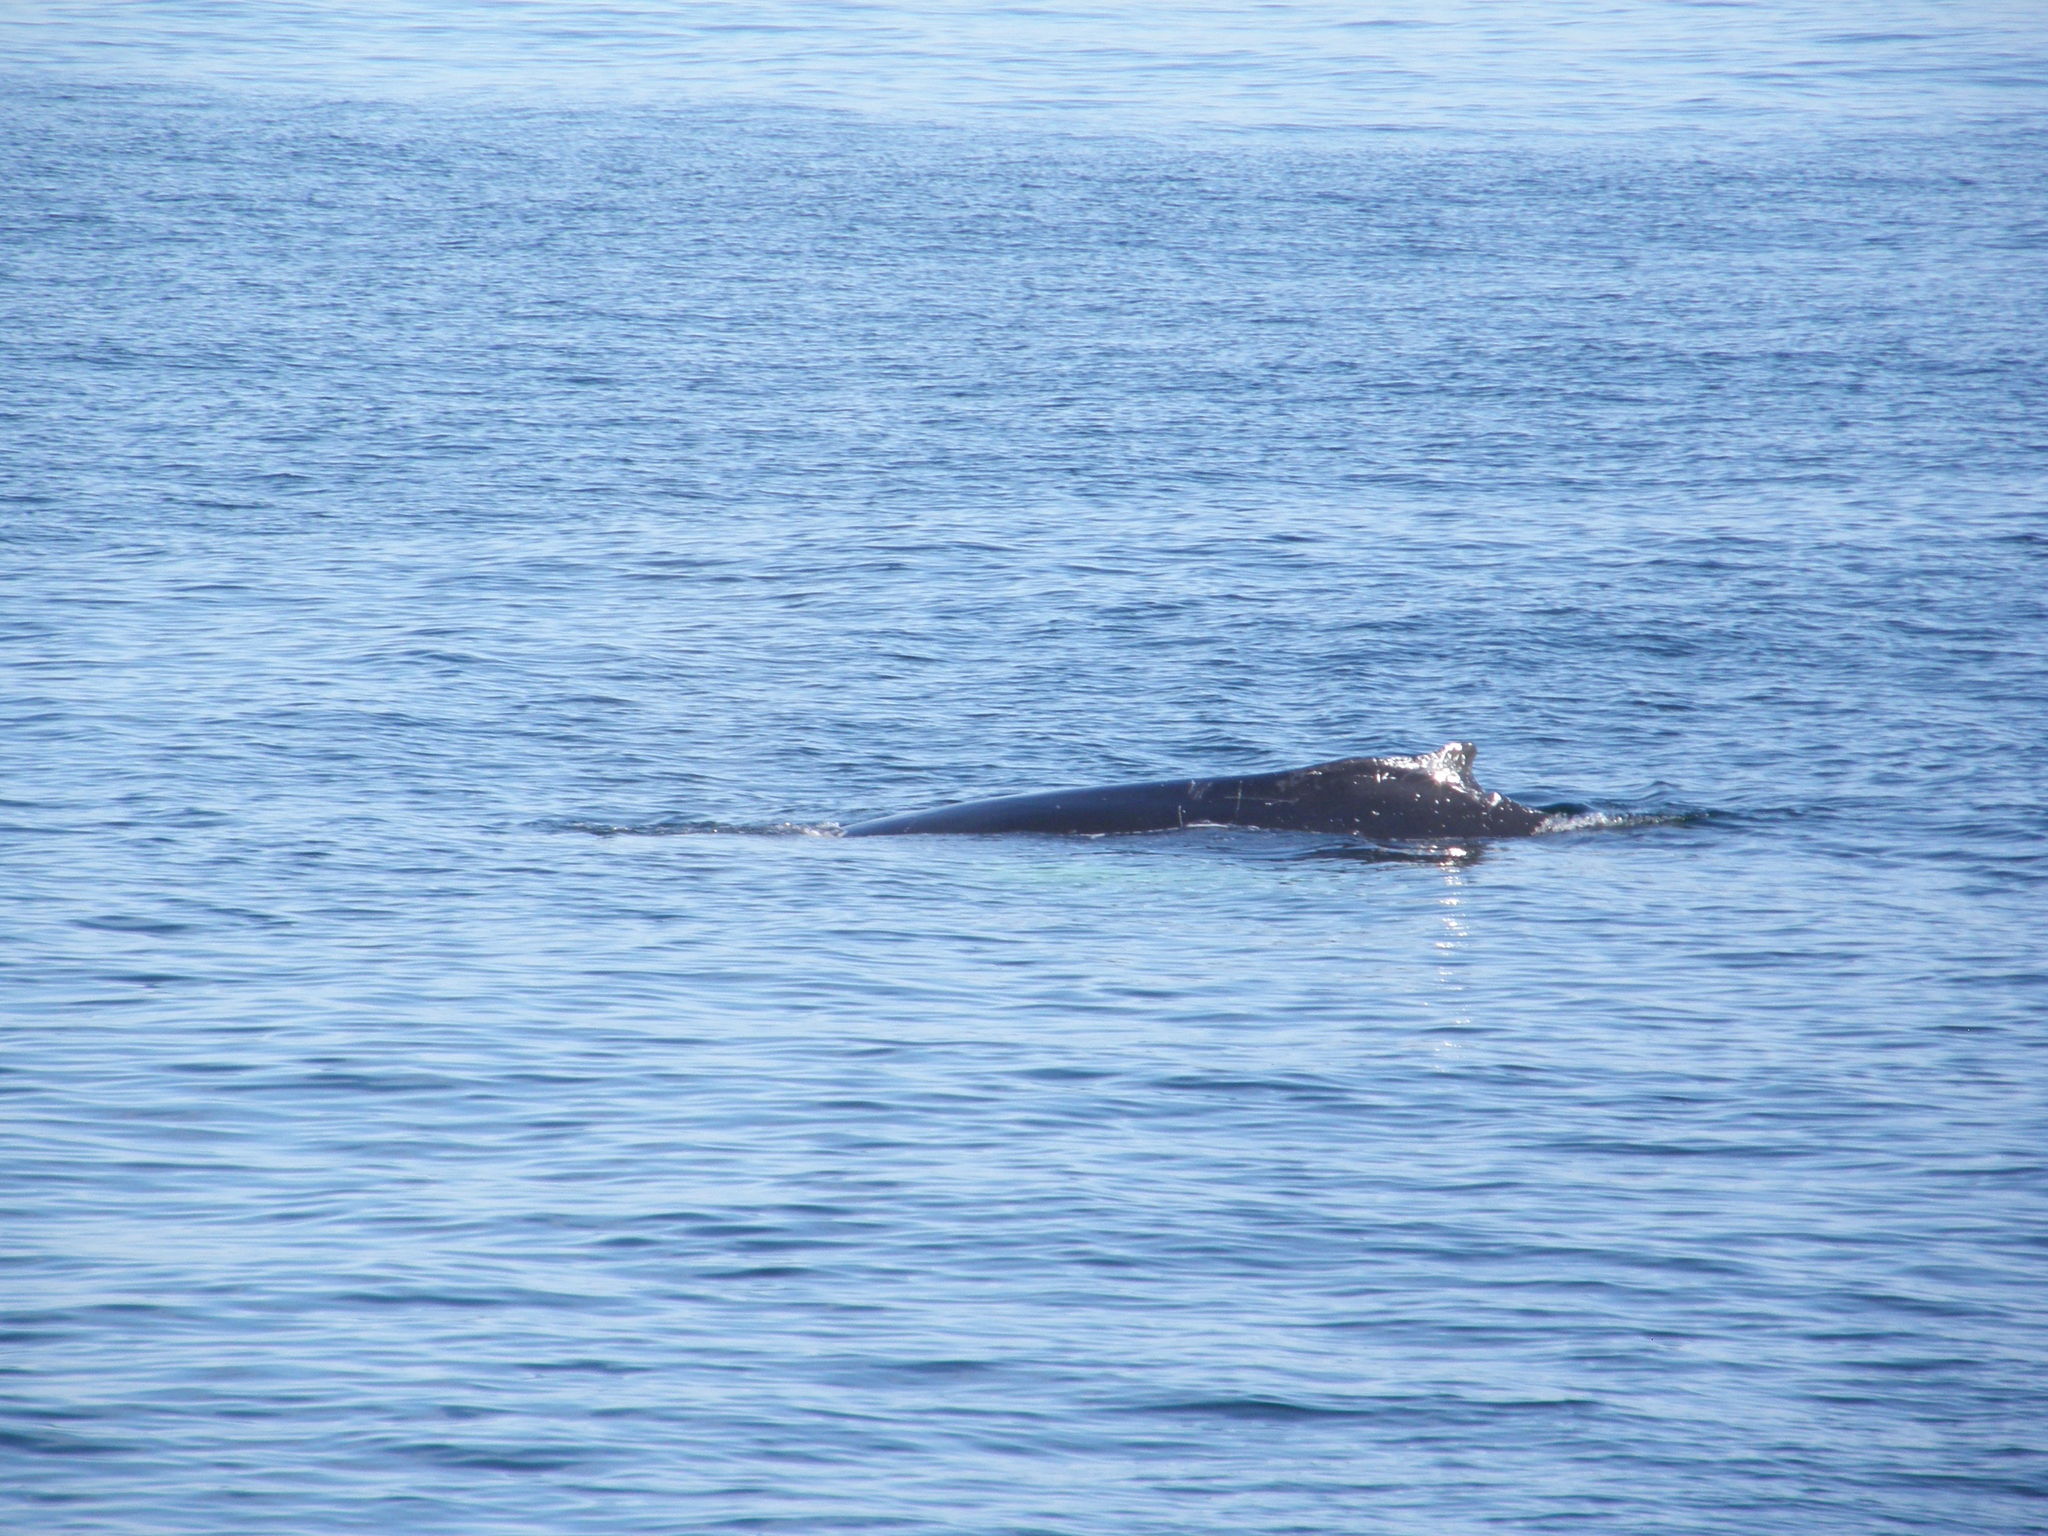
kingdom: Animalia
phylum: Chordata
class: Mammalia
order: Cetacea
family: Balaenopteridae
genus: Megaptera
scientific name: Megaptera novaeangliae
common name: Humpback whale
